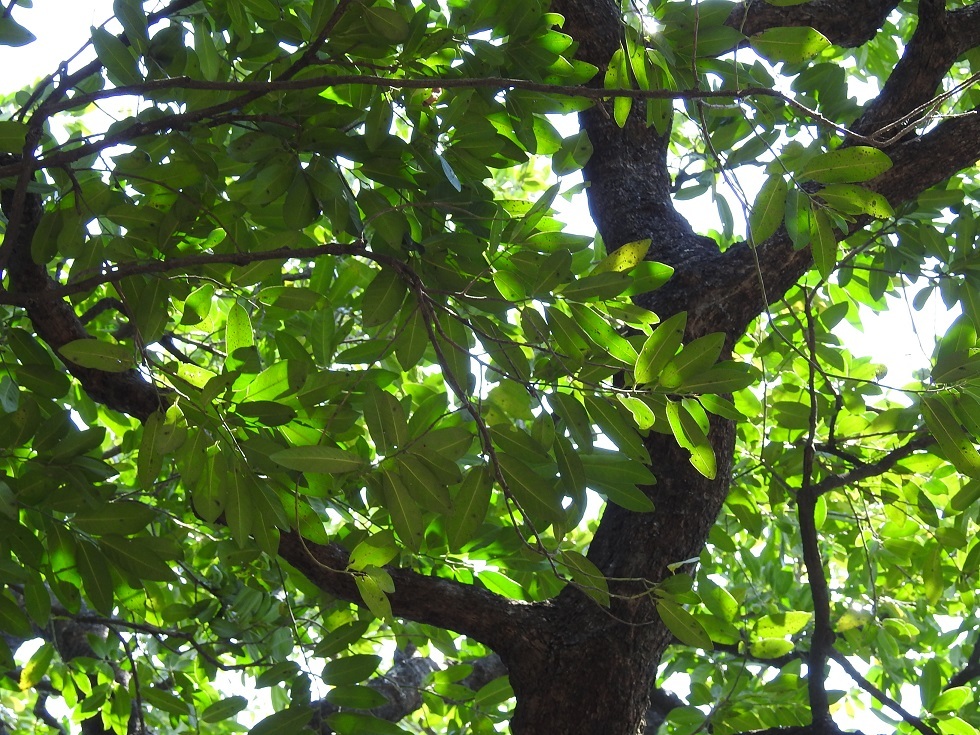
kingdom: Plantae
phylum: Tracheophyta
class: Magnoliopsida
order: Ericales
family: Ebenaceae
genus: Diospyros
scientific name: Diospyros nigra
